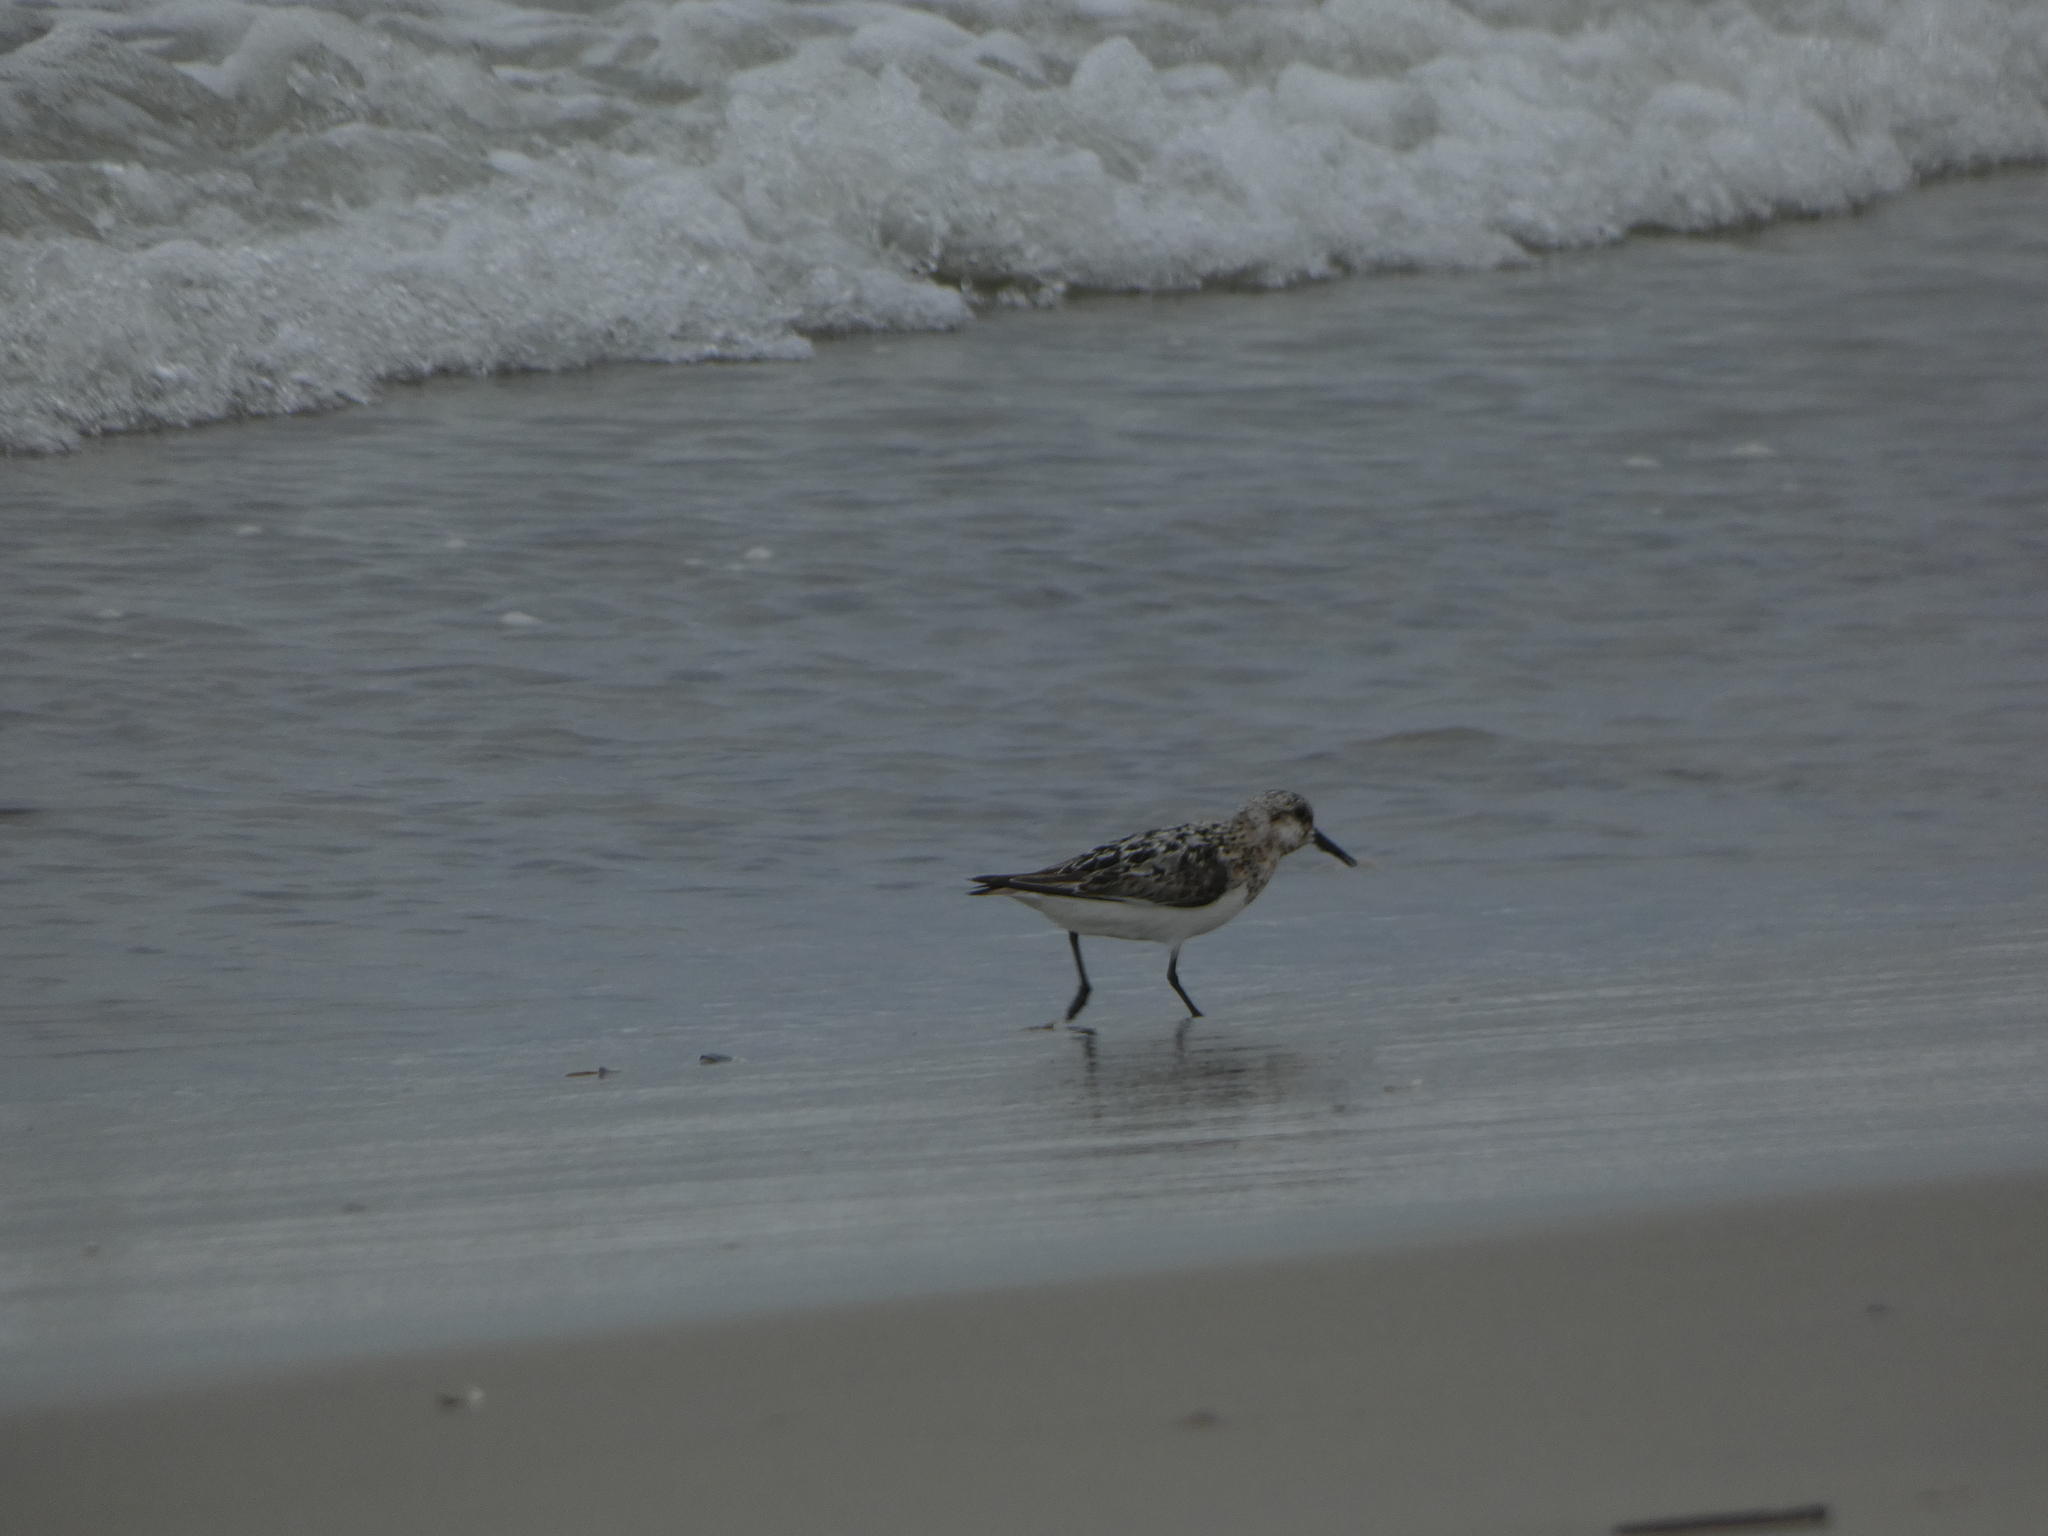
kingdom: Animalia
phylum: Chordata
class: Aves
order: Charadriiformes
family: Scolopacidae
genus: Calidris
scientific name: Calidris alba
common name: Sanderling
